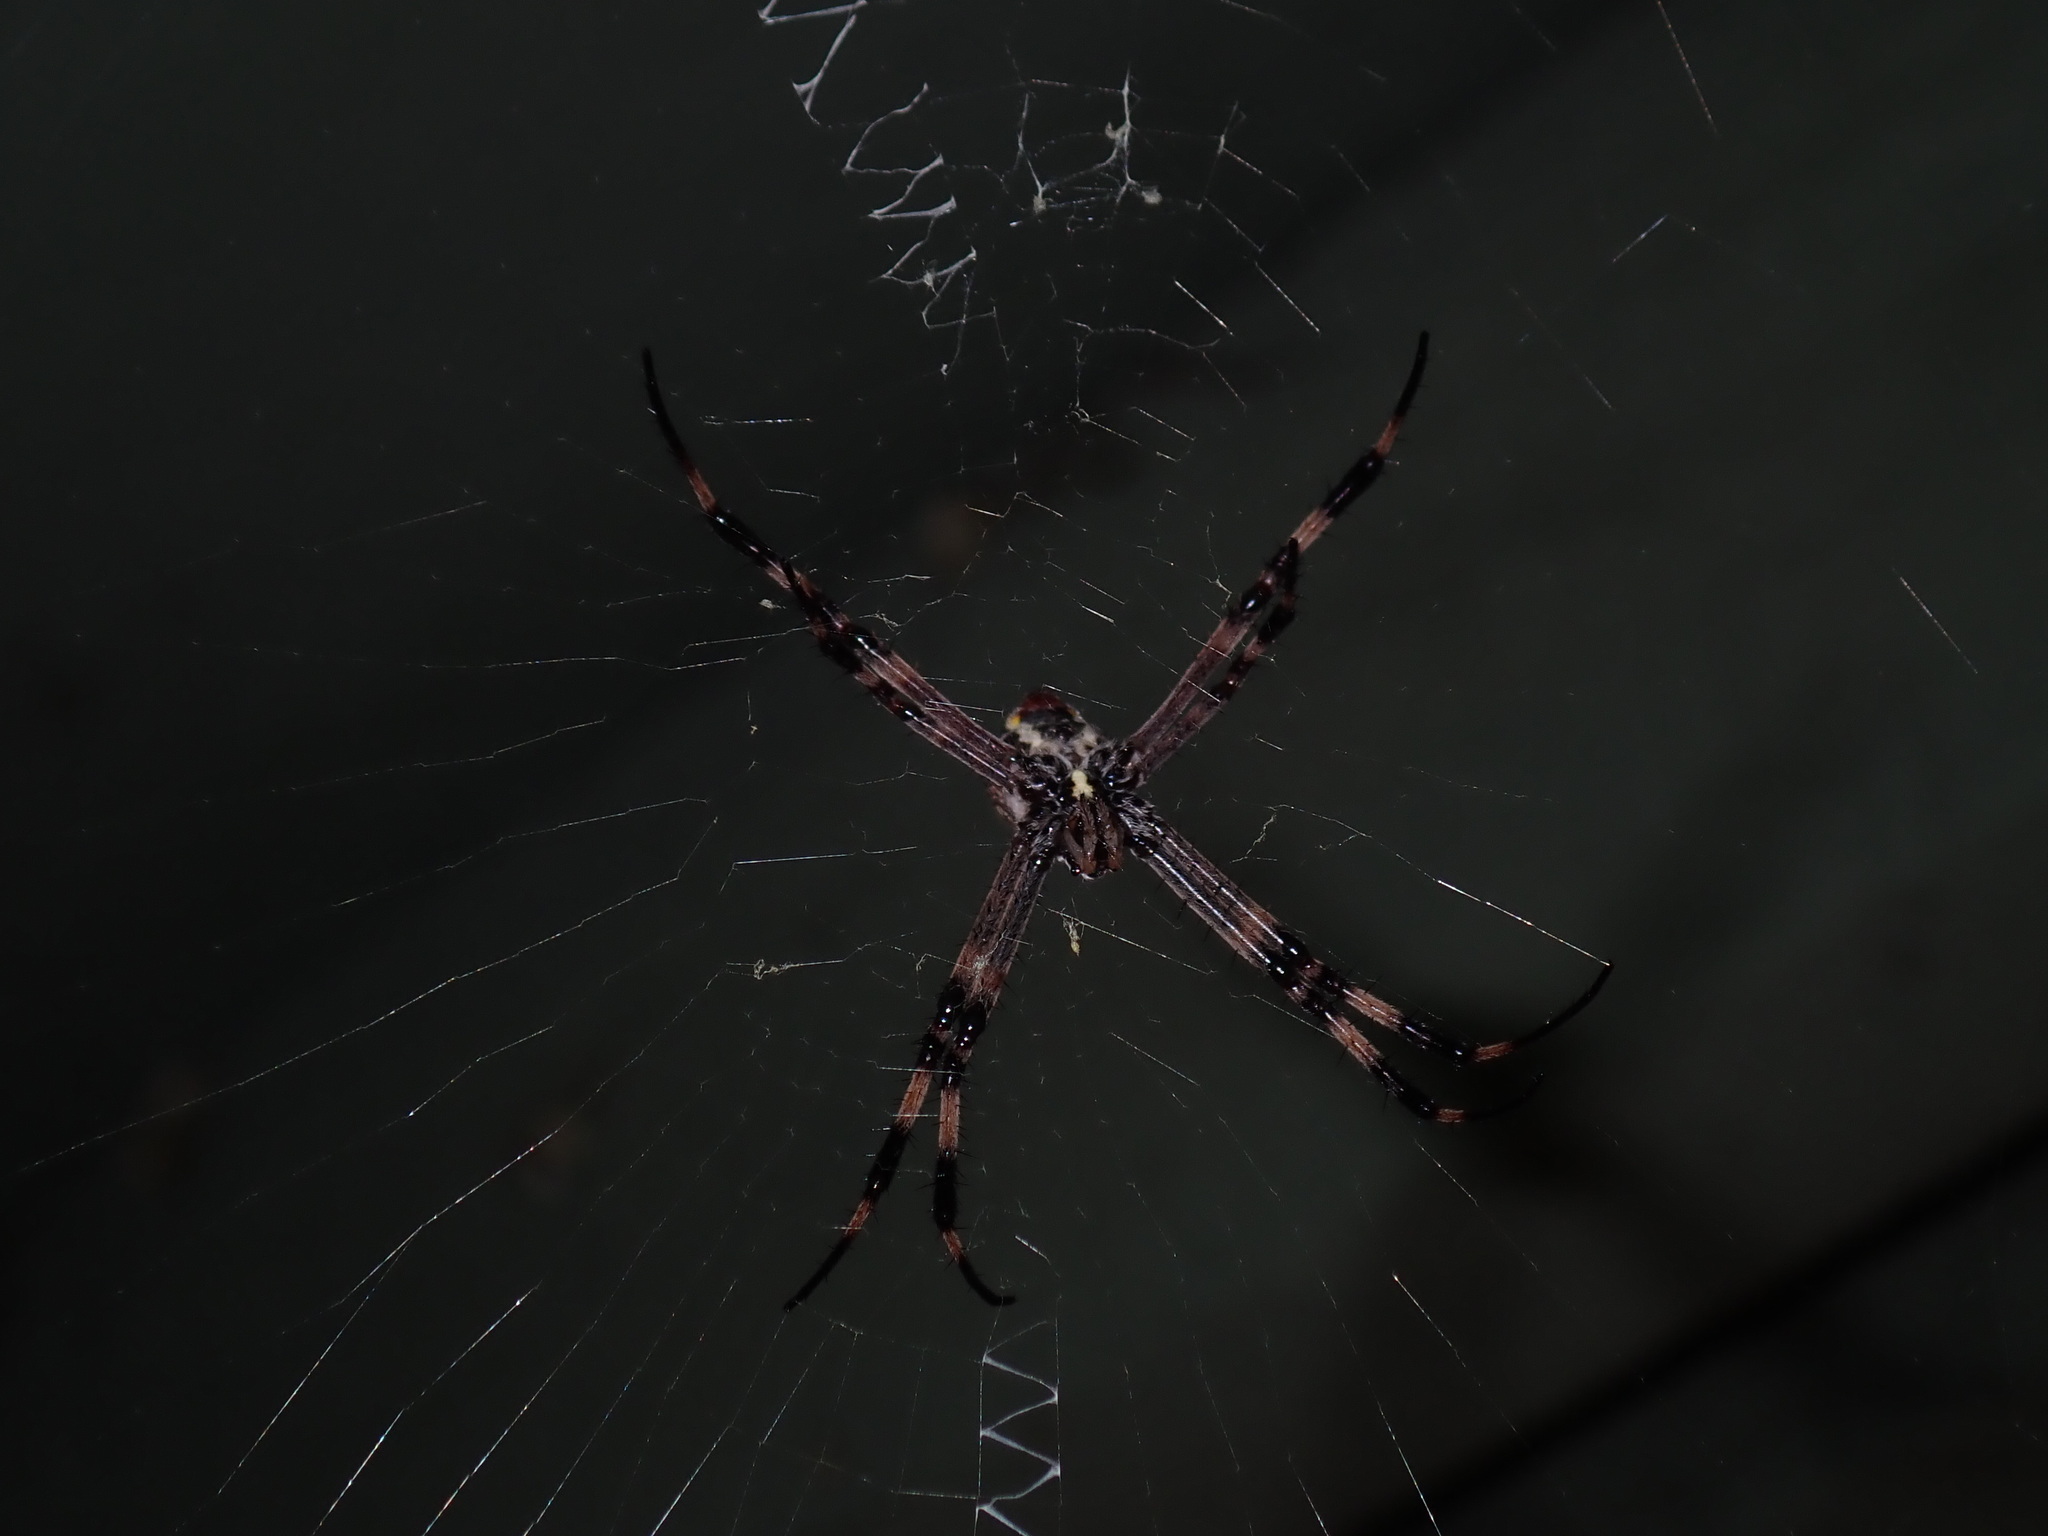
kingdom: Animalia
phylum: Arthropoda
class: Arachnida
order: Araneae
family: Araneidae
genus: Argiope
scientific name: Argiope katherina
